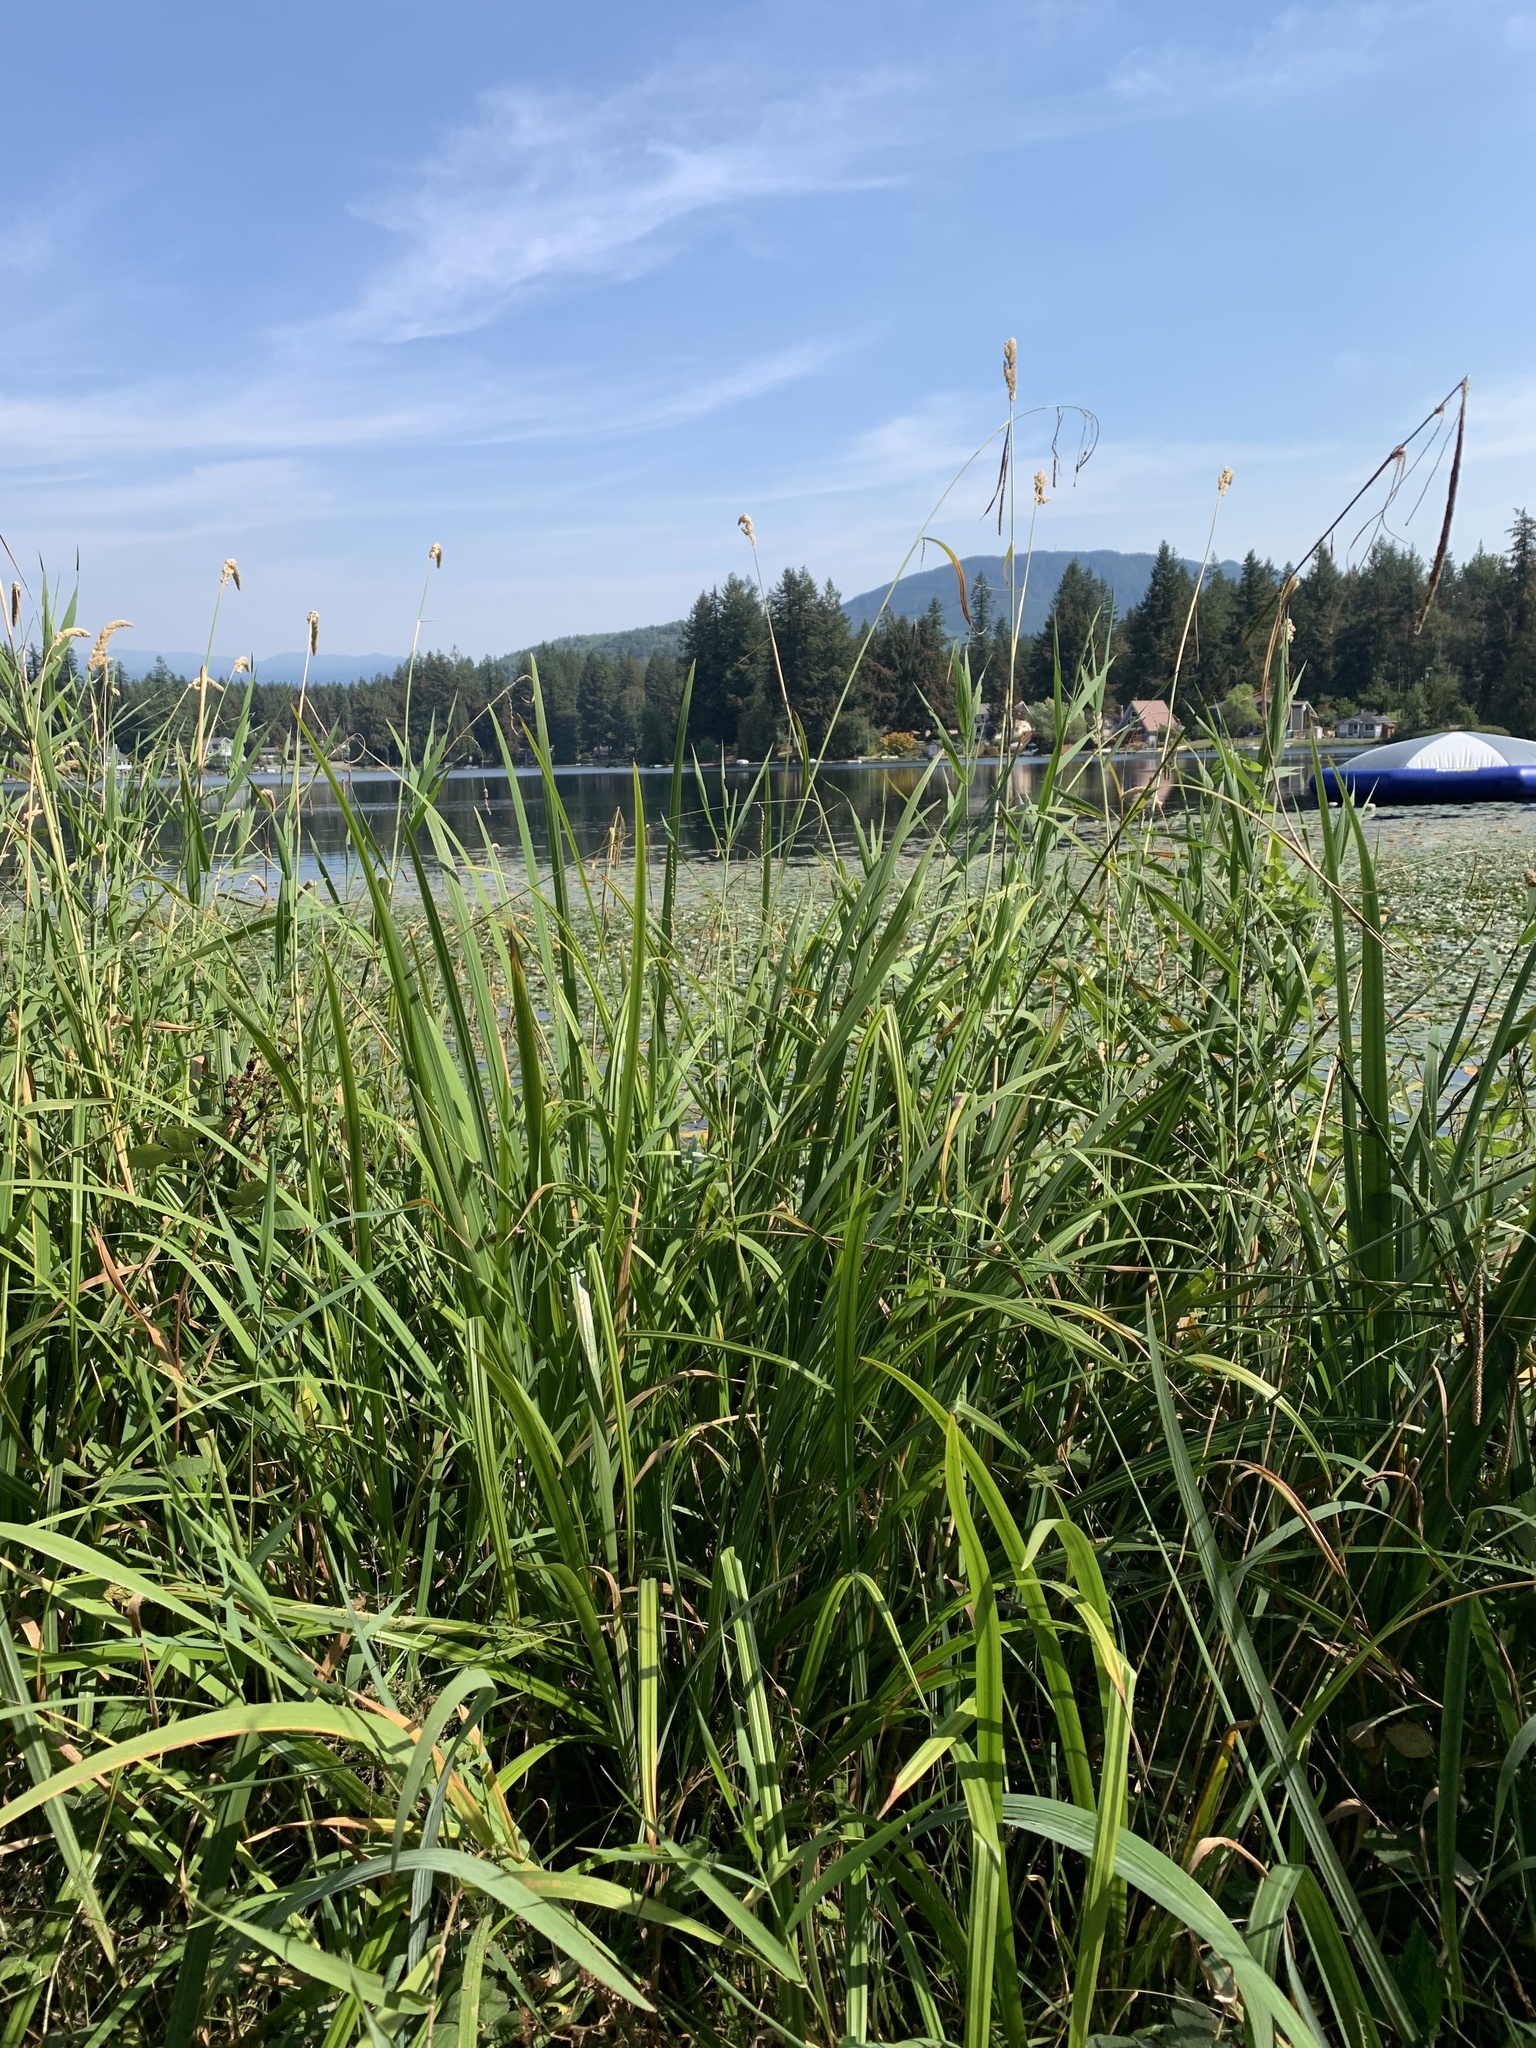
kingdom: Plantae
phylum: Tracheophyta
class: Liliopsida
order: Poales
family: Cyperaceae
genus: Carex
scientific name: Carex pendula
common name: Pendulous sedge
